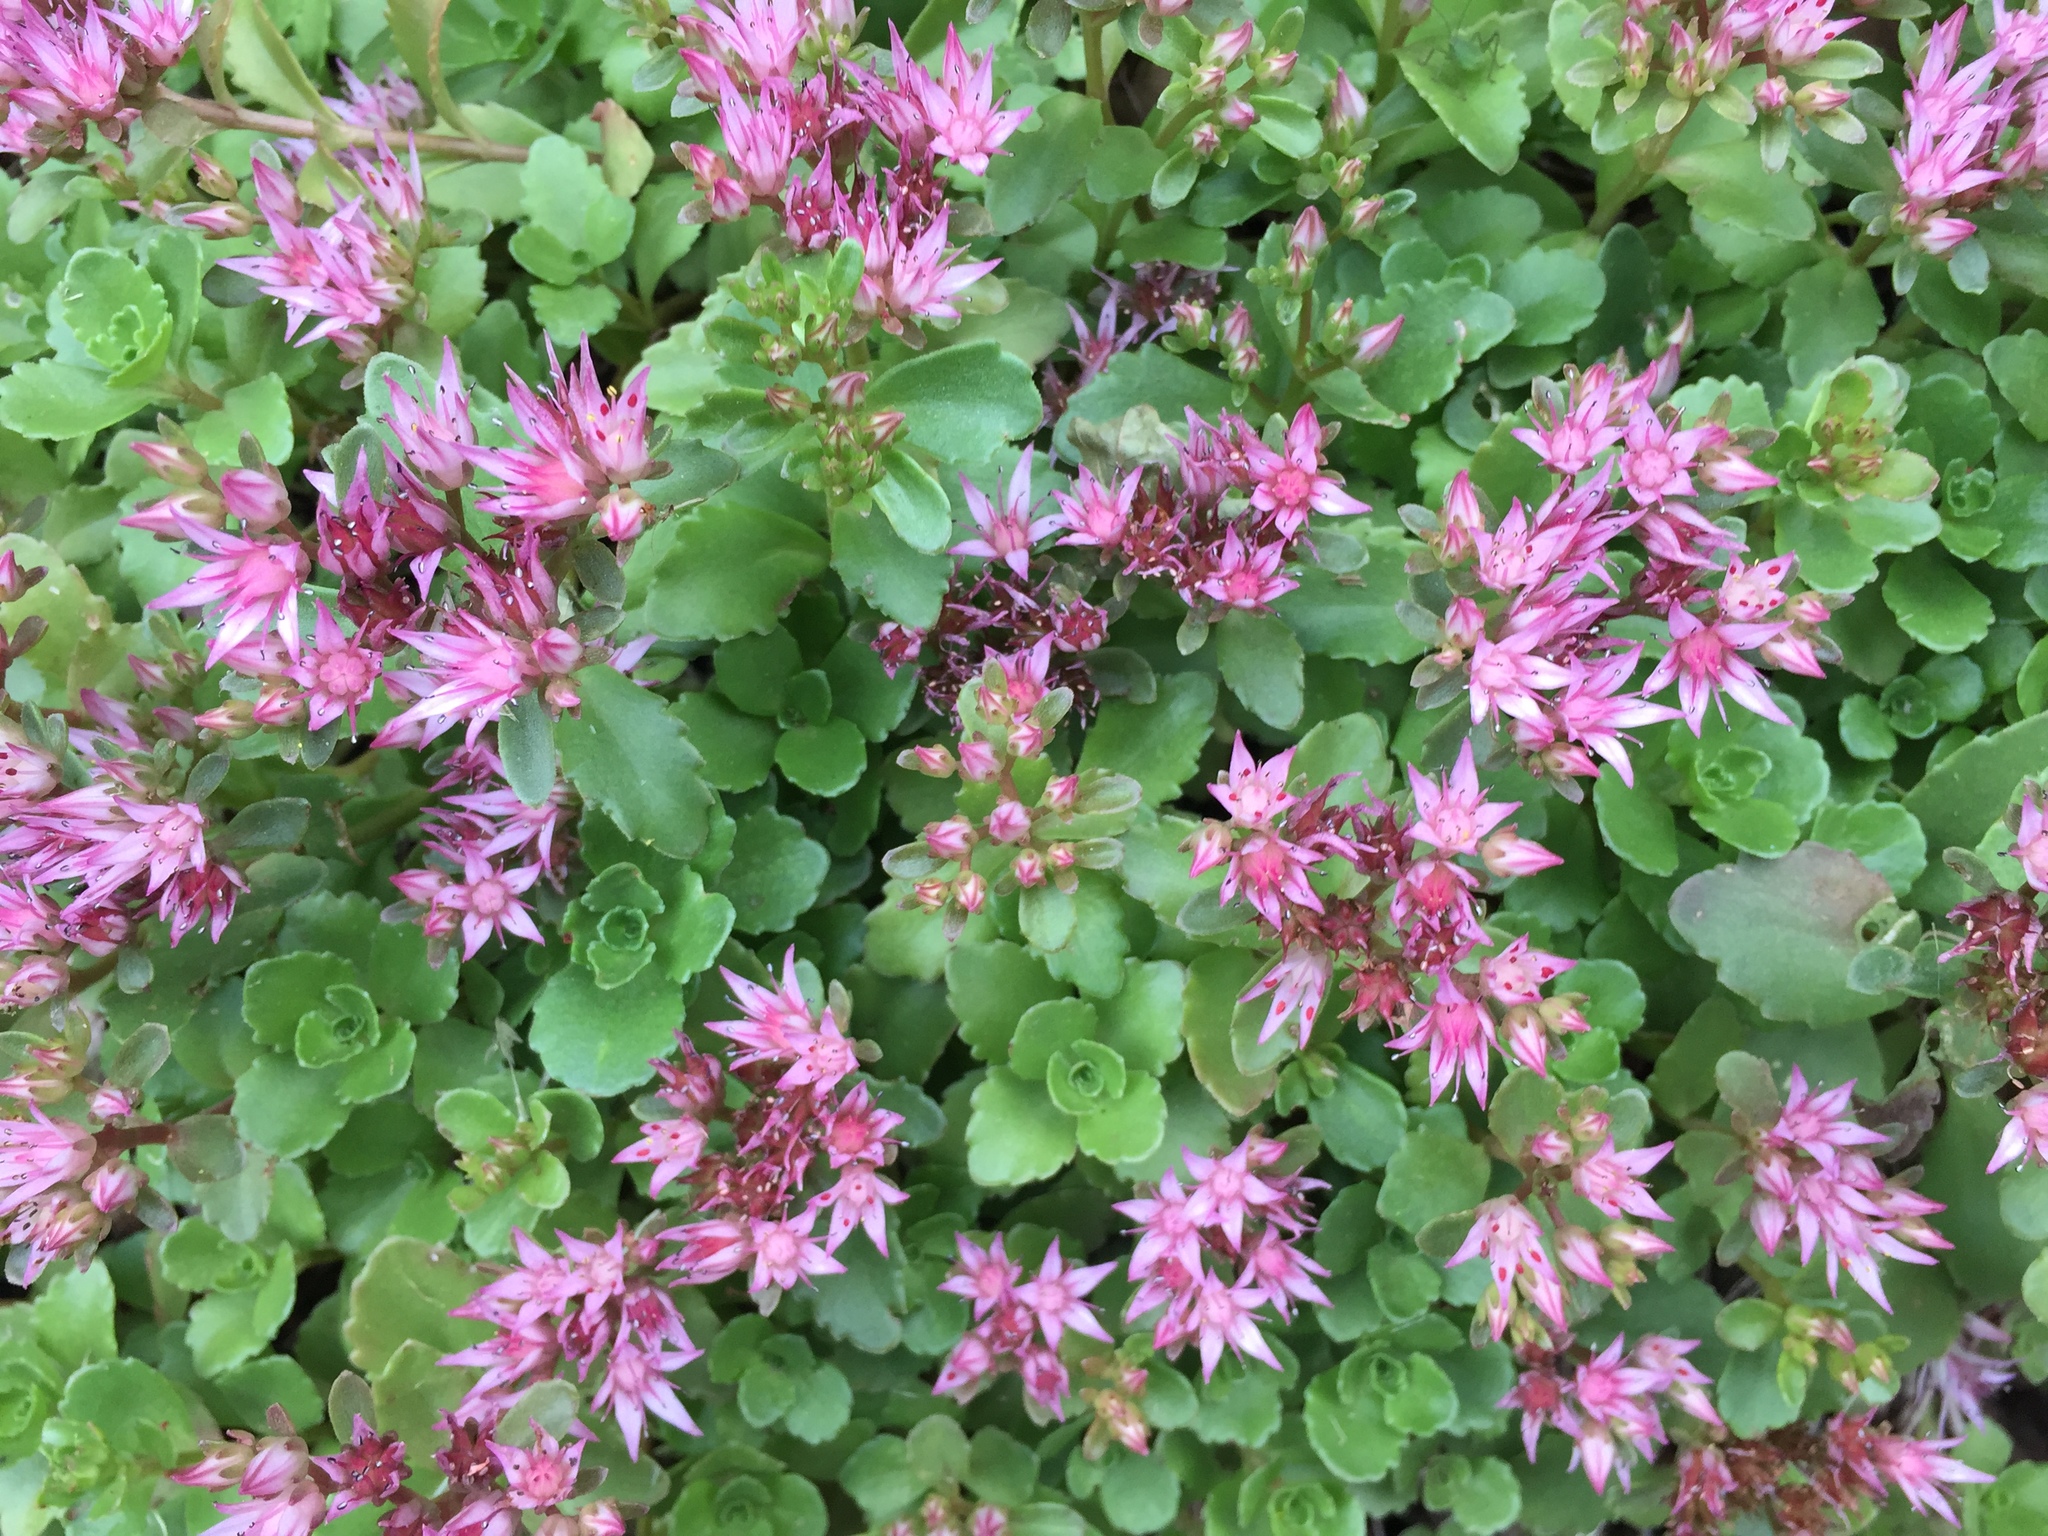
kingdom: Plantae
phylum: Tracheophyta
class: Magnoliopsida
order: Saxifragales
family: Crassulaceae
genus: Phedimus
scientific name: Phedimus spurius
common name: Caucasian stonecrop
